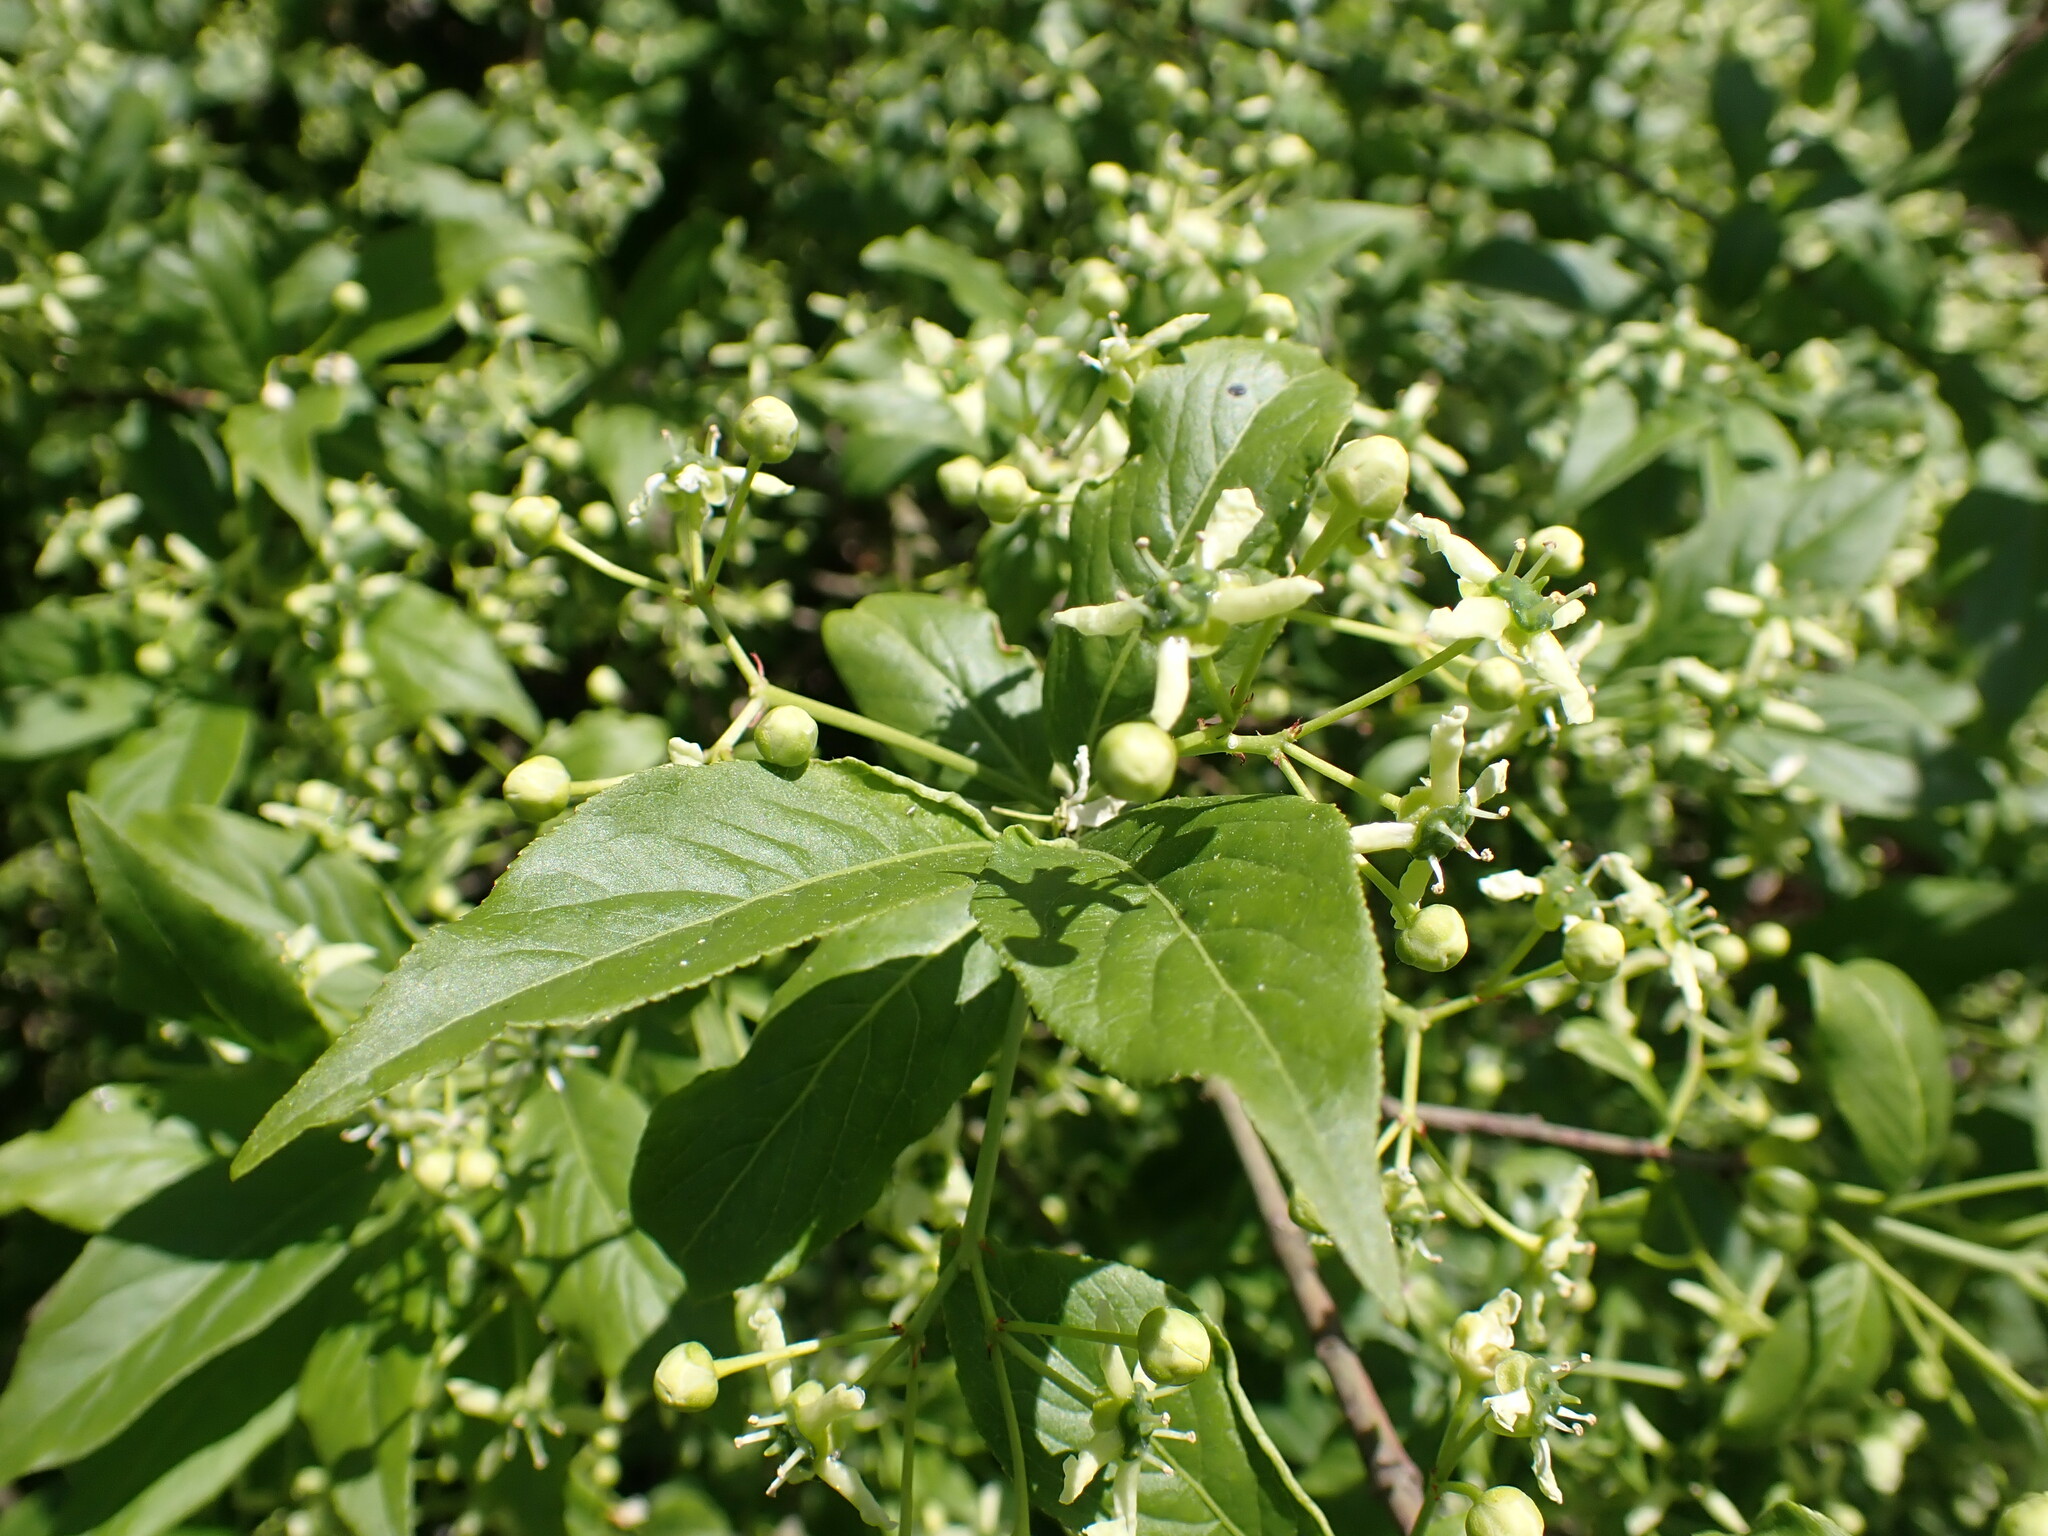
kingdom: Plantae
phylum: Tracheophyta
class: Magnoliopsida
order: Celastrales
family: Celastraceae
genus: Euonymus
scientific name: Euonymus europaeus
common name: Spindle
